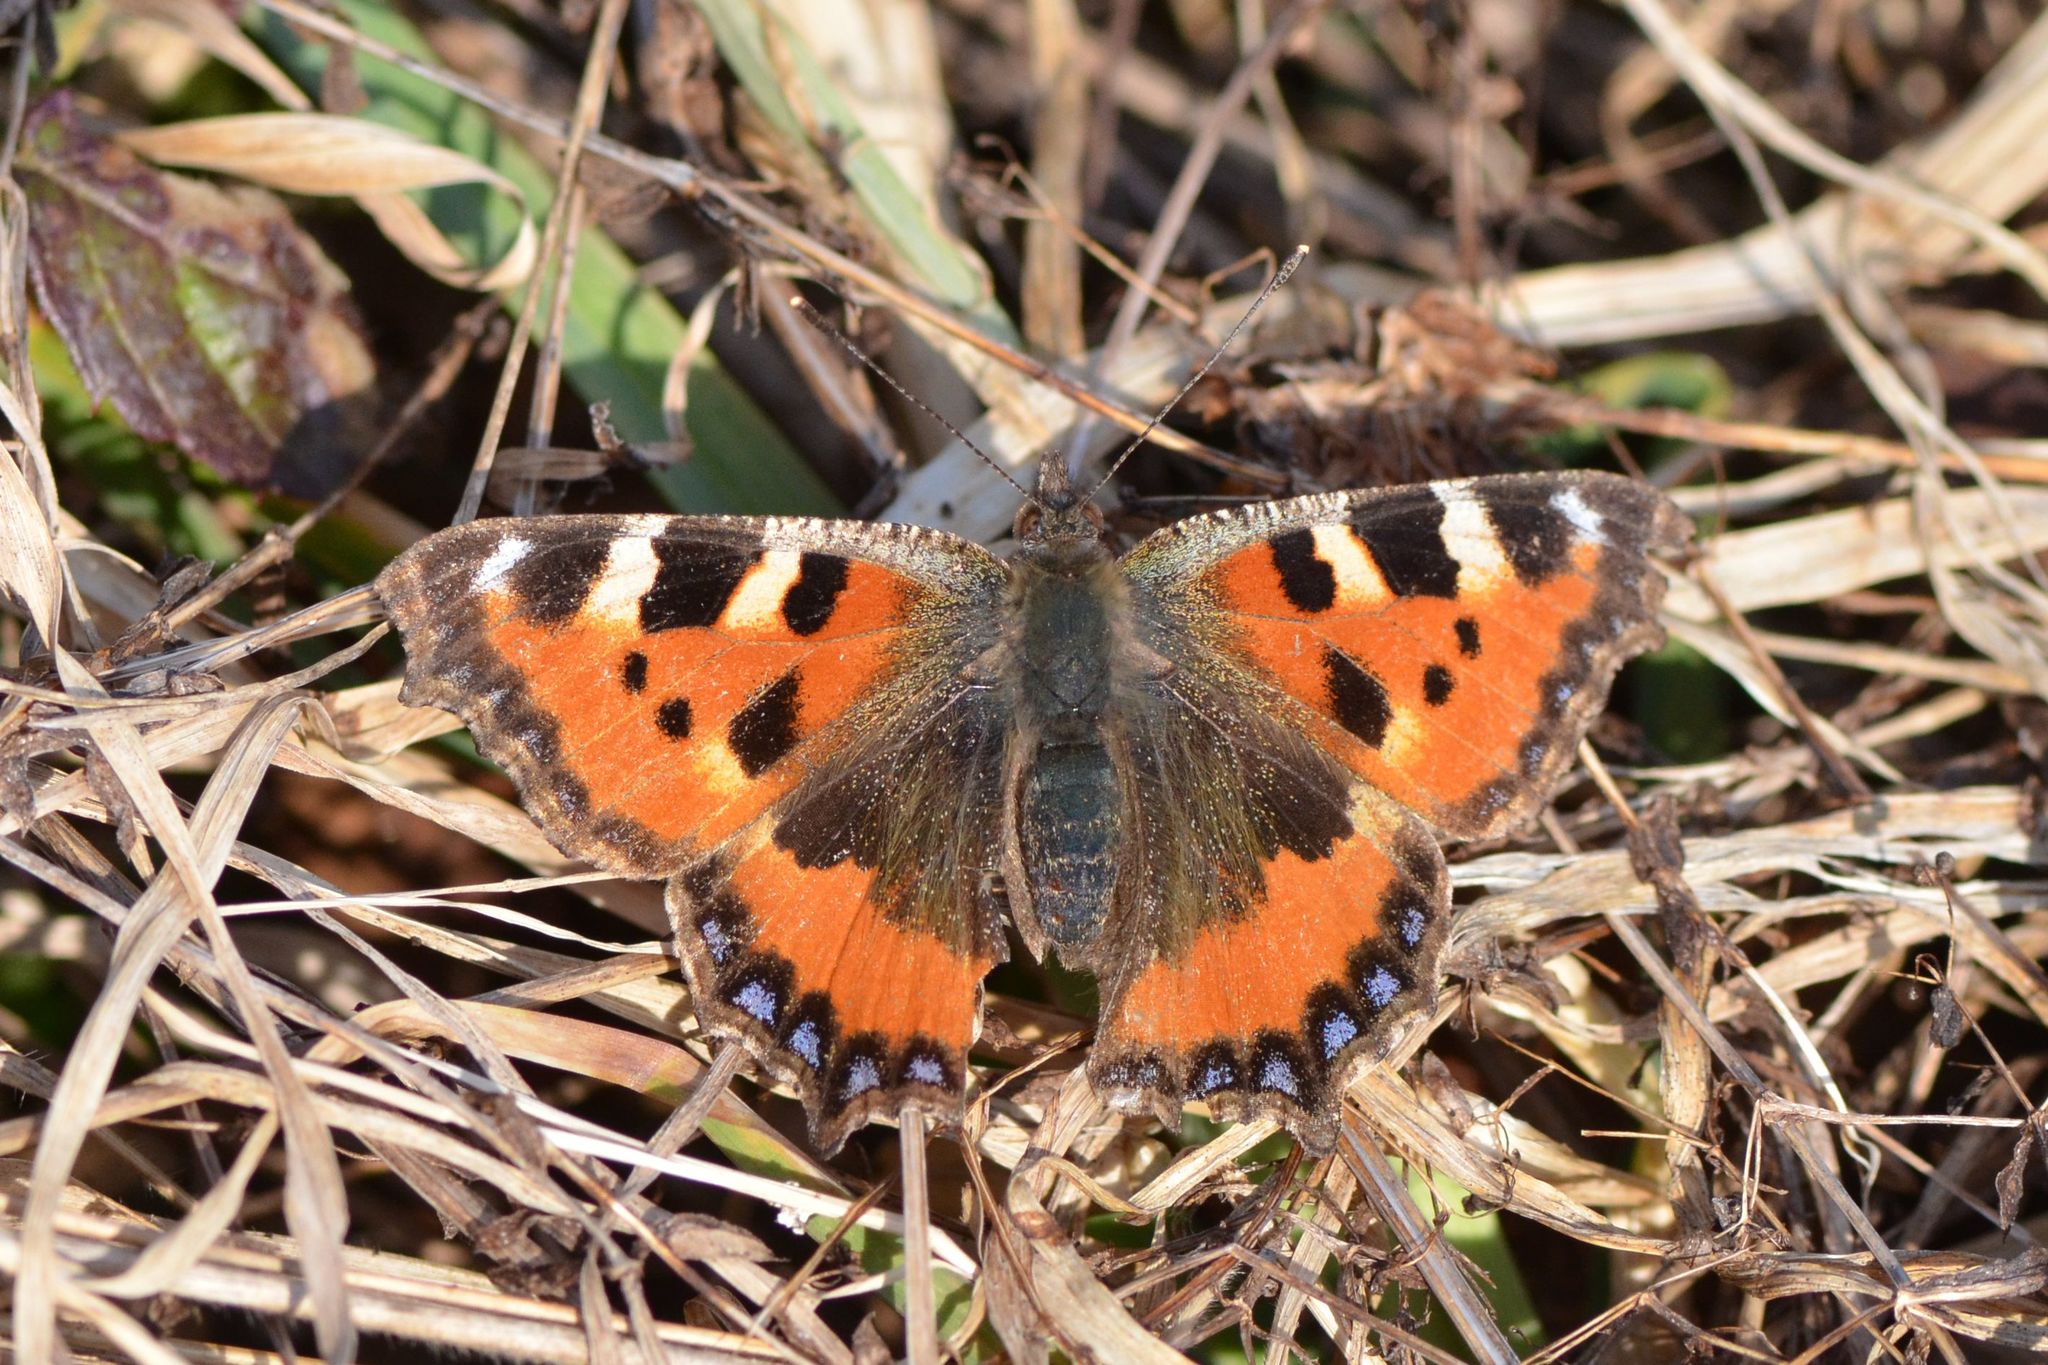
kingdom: Animalia
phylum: Arthropoda
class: Insecta
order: Lepidoptera
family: Nymphalidae
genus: Aglais
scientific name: Aglais urticae
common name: Small tortoiseshell
